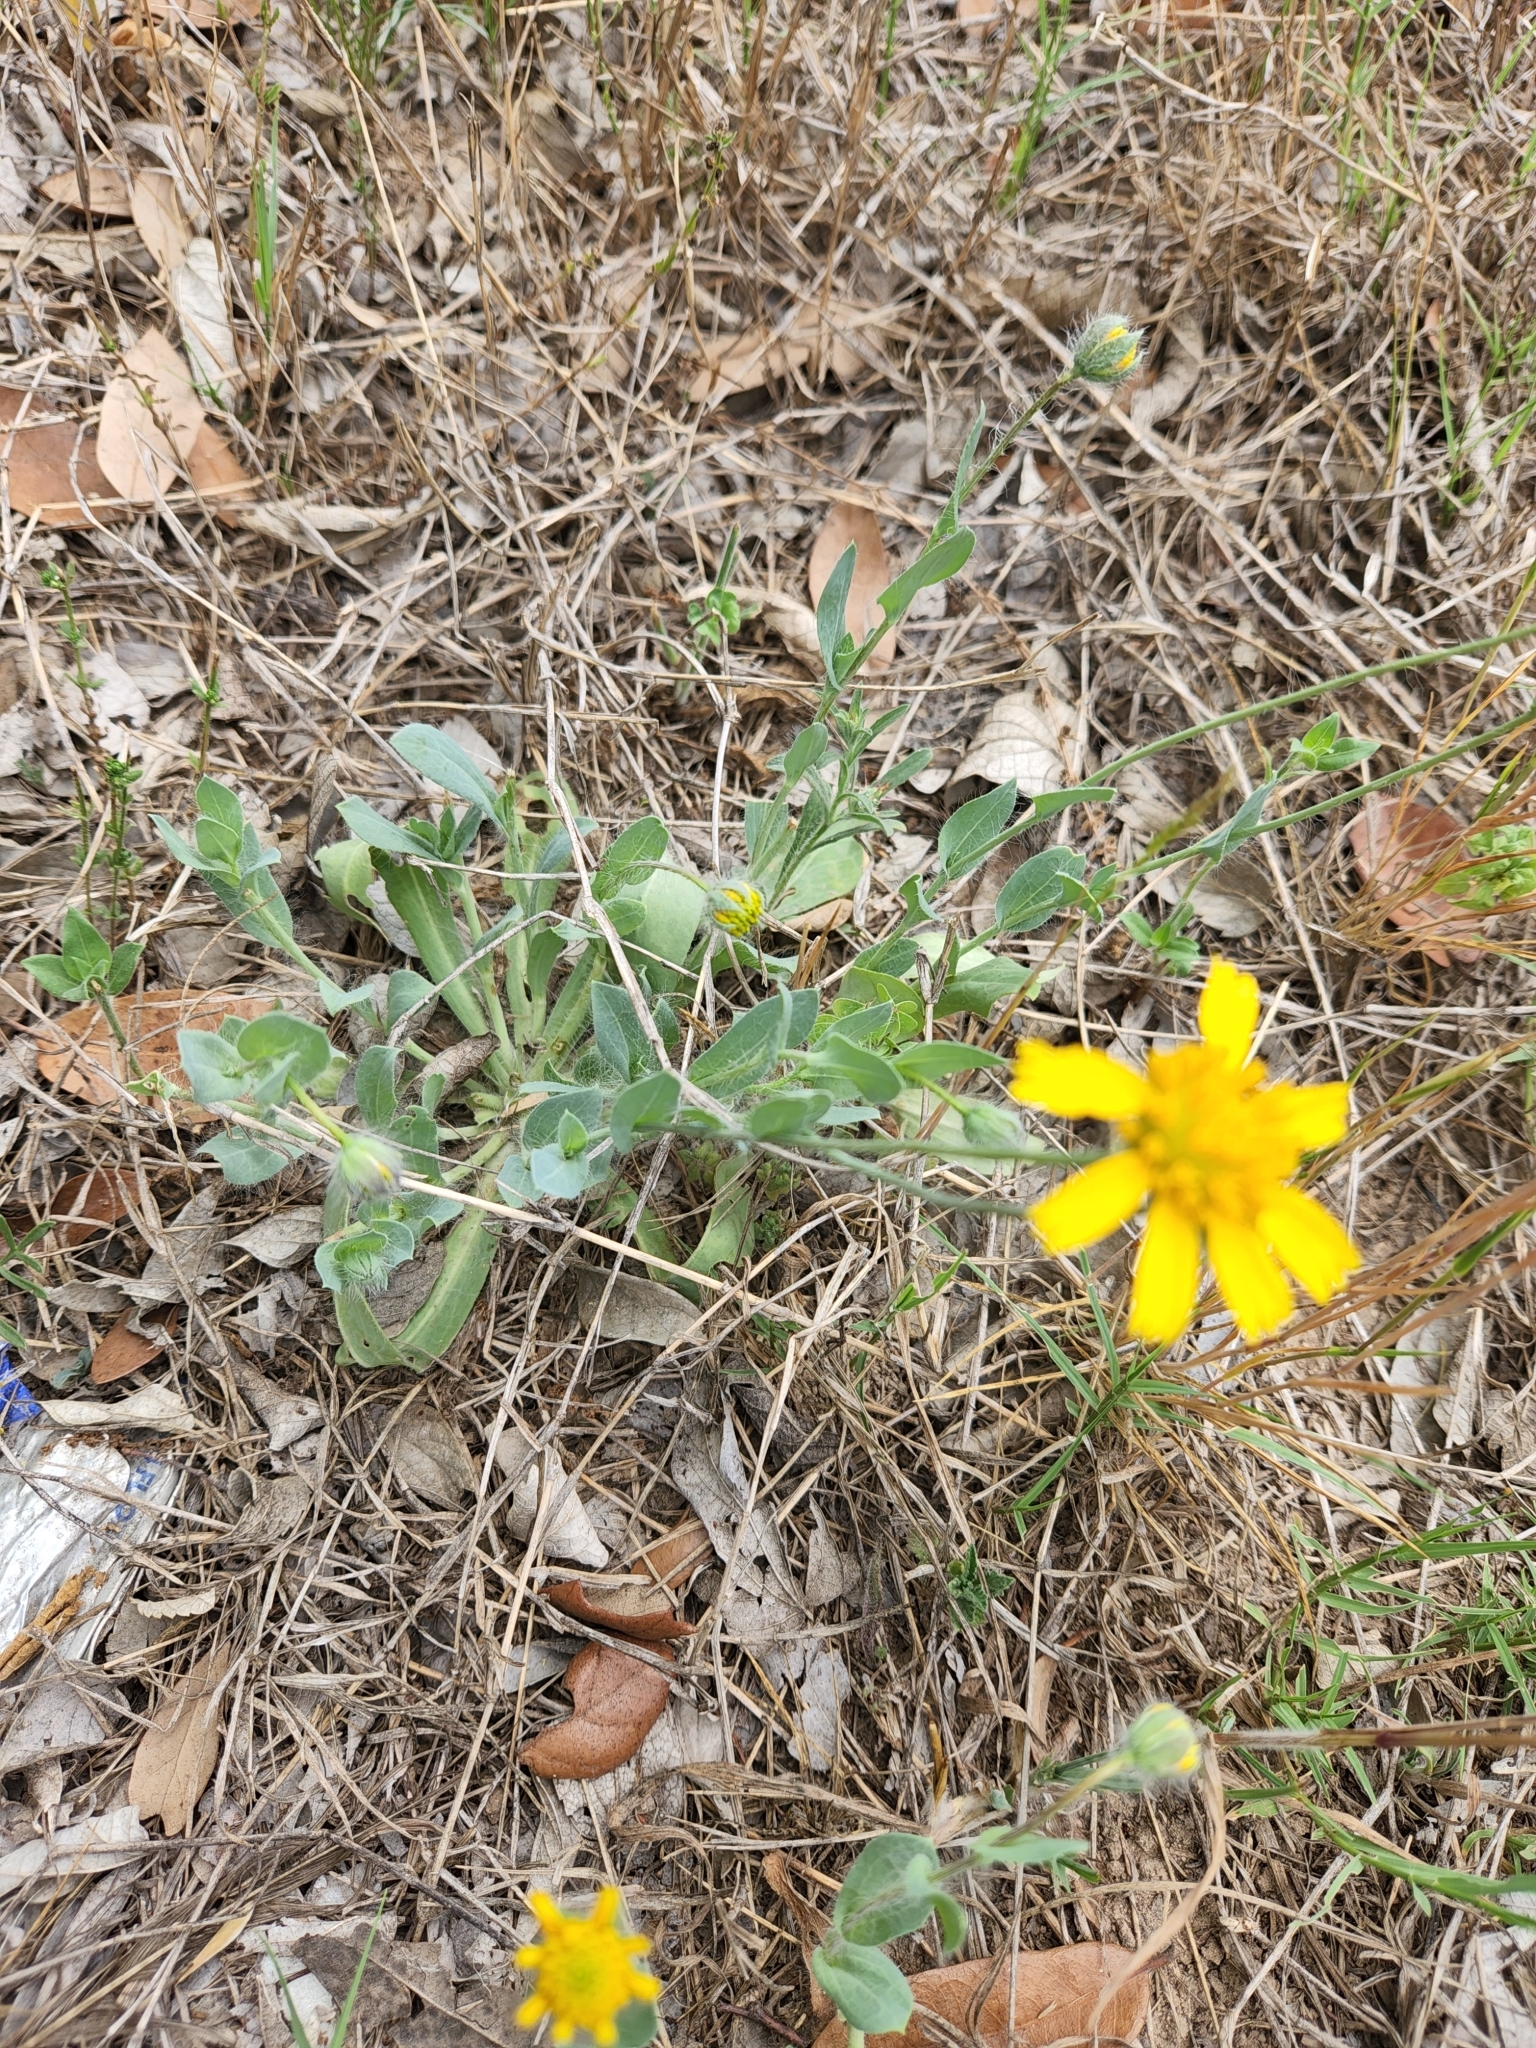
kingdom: Plantae
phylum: Tracheophyta
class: Magnoliopsida
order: Asterales
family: Asteraceae
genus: Amblyolepis
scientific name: Amblyolepis setigera
